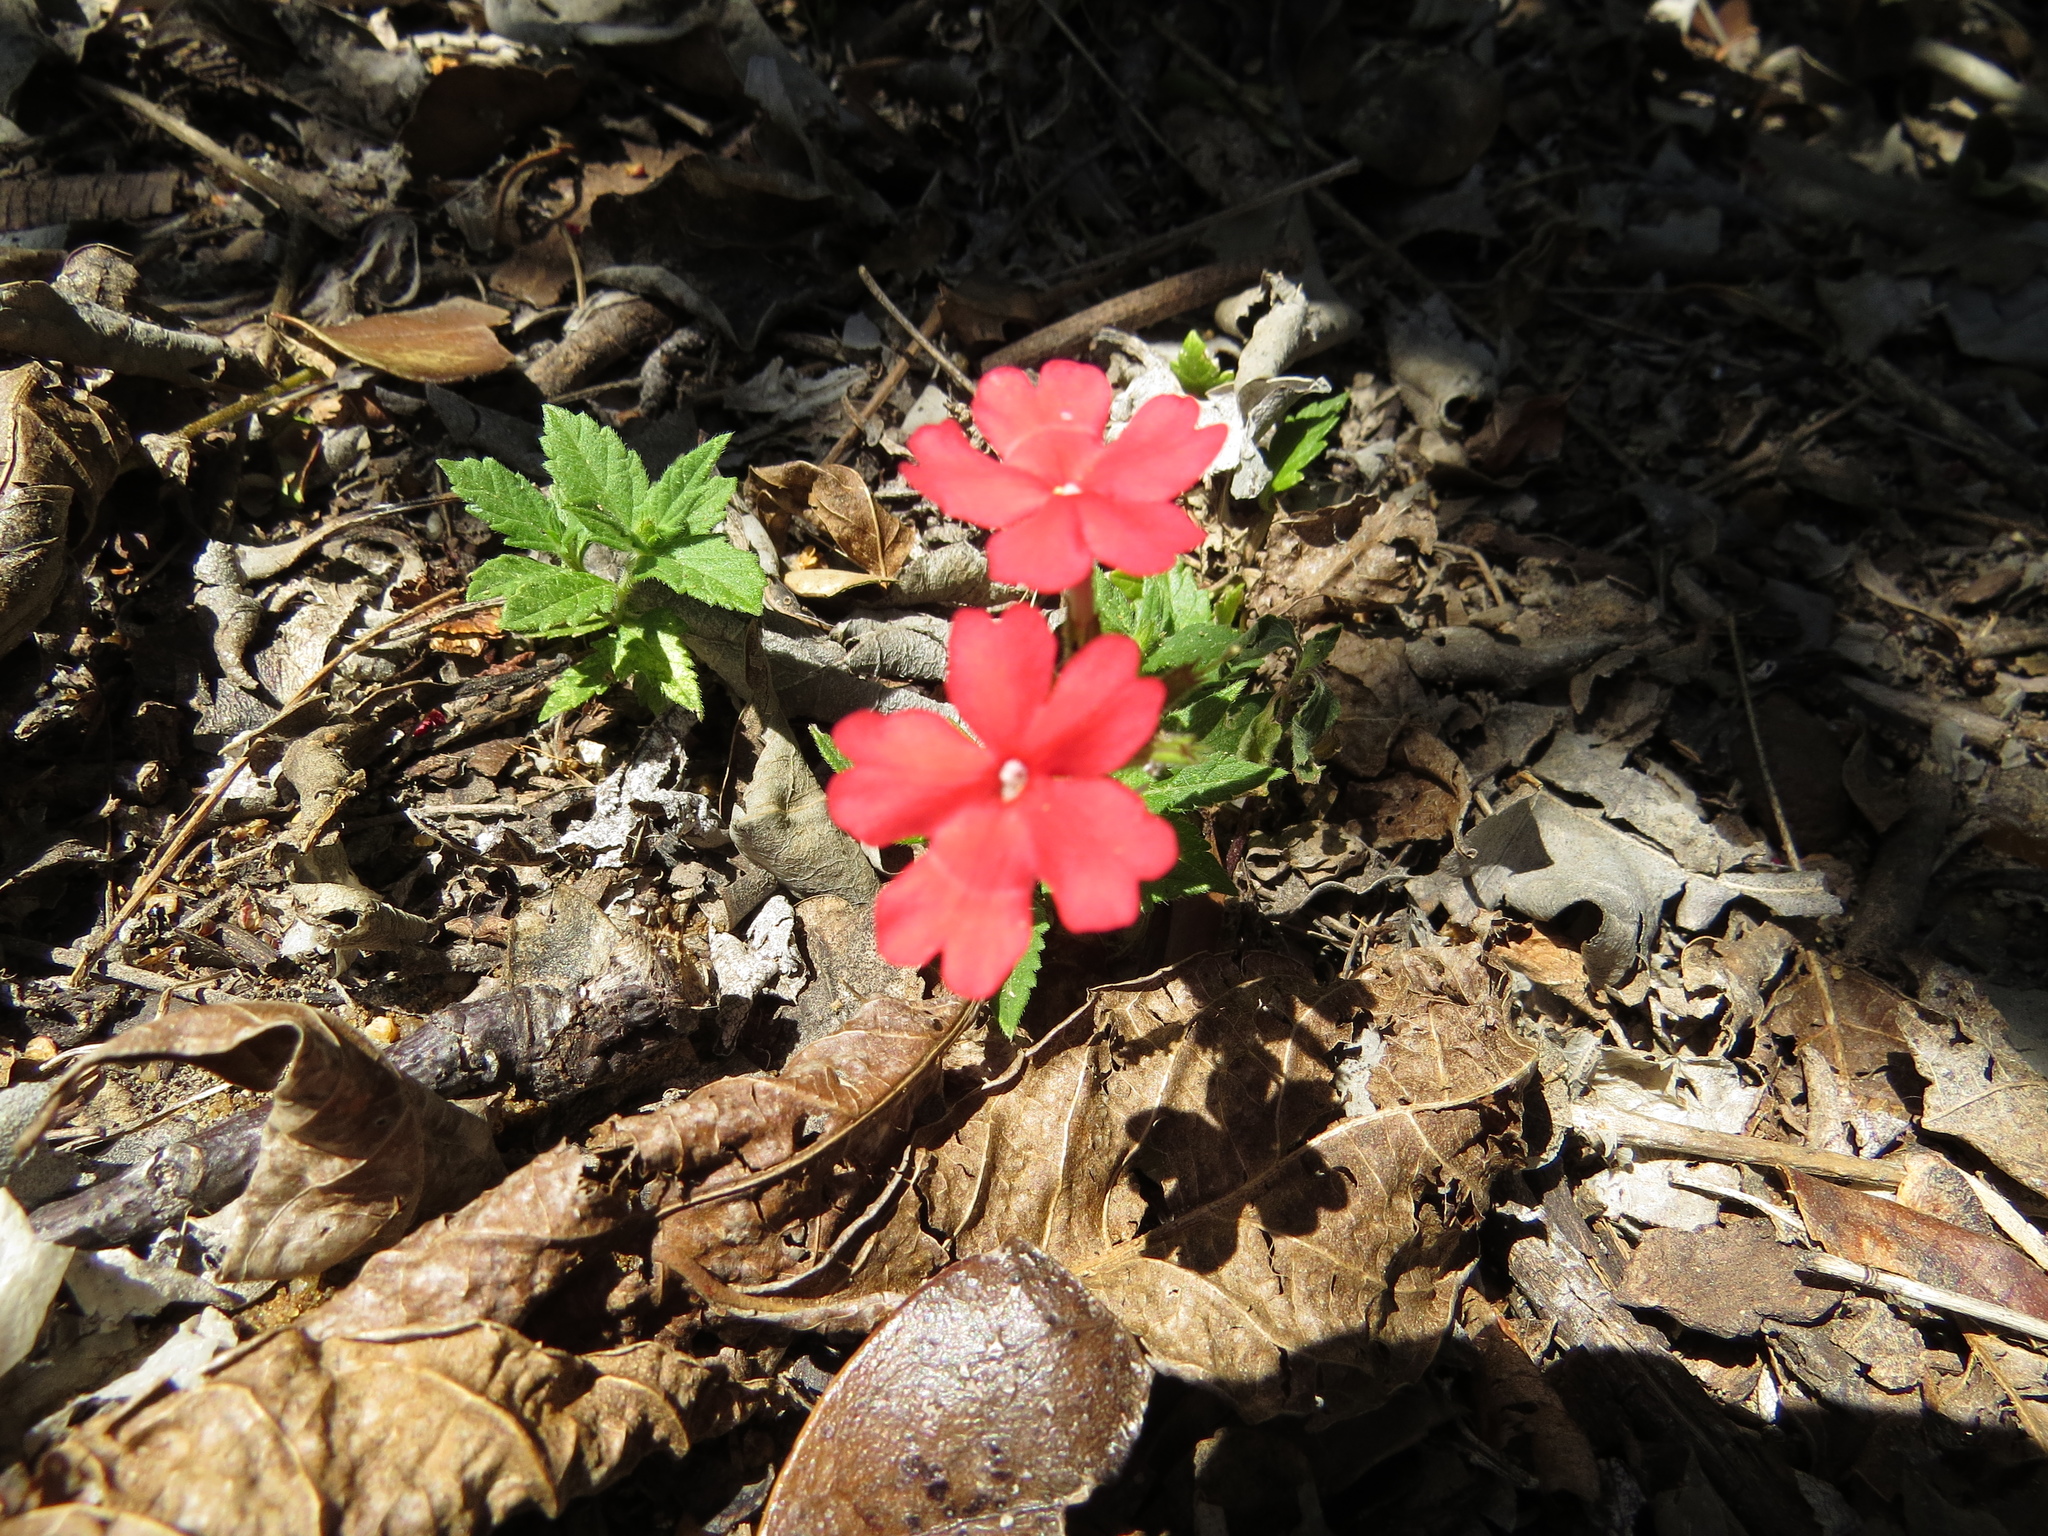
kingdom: Plantae
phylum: Tracheophyta
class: Magnoliopsida
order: Lamiales
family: Verbenaceae
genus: Verbena
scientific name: Verbena peruviana
